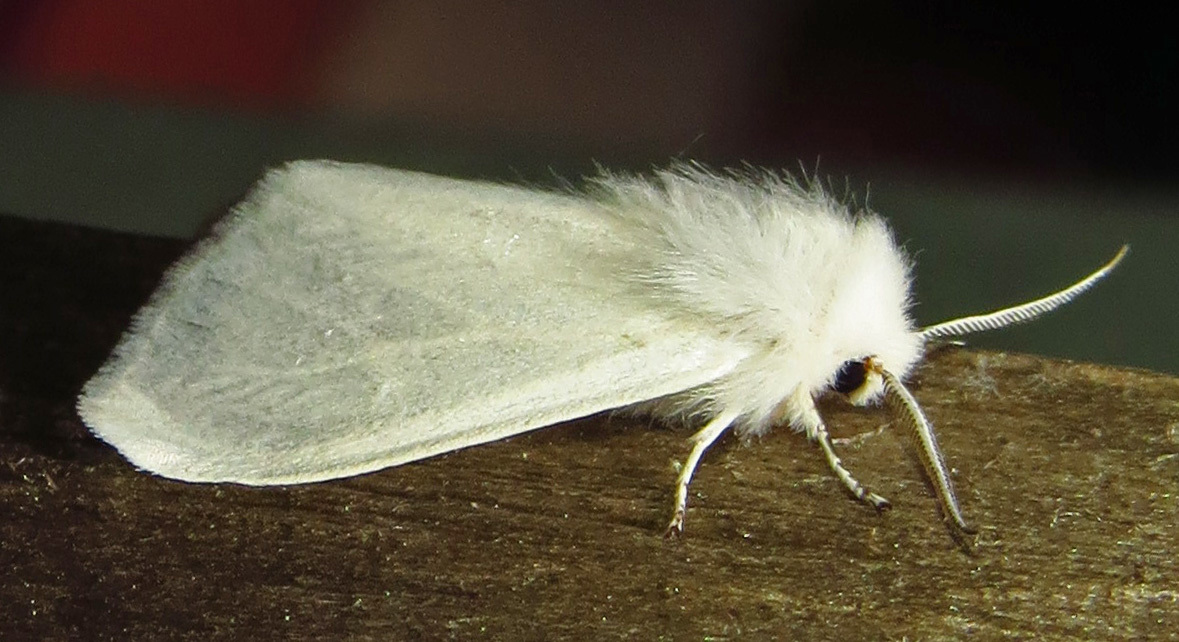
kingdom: Animalia
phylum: Arthropoda
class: Insecta
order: Lepidoptera
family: Erebidae
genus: Hyphantria
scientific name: Hyphantria cunea
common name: American white moth
